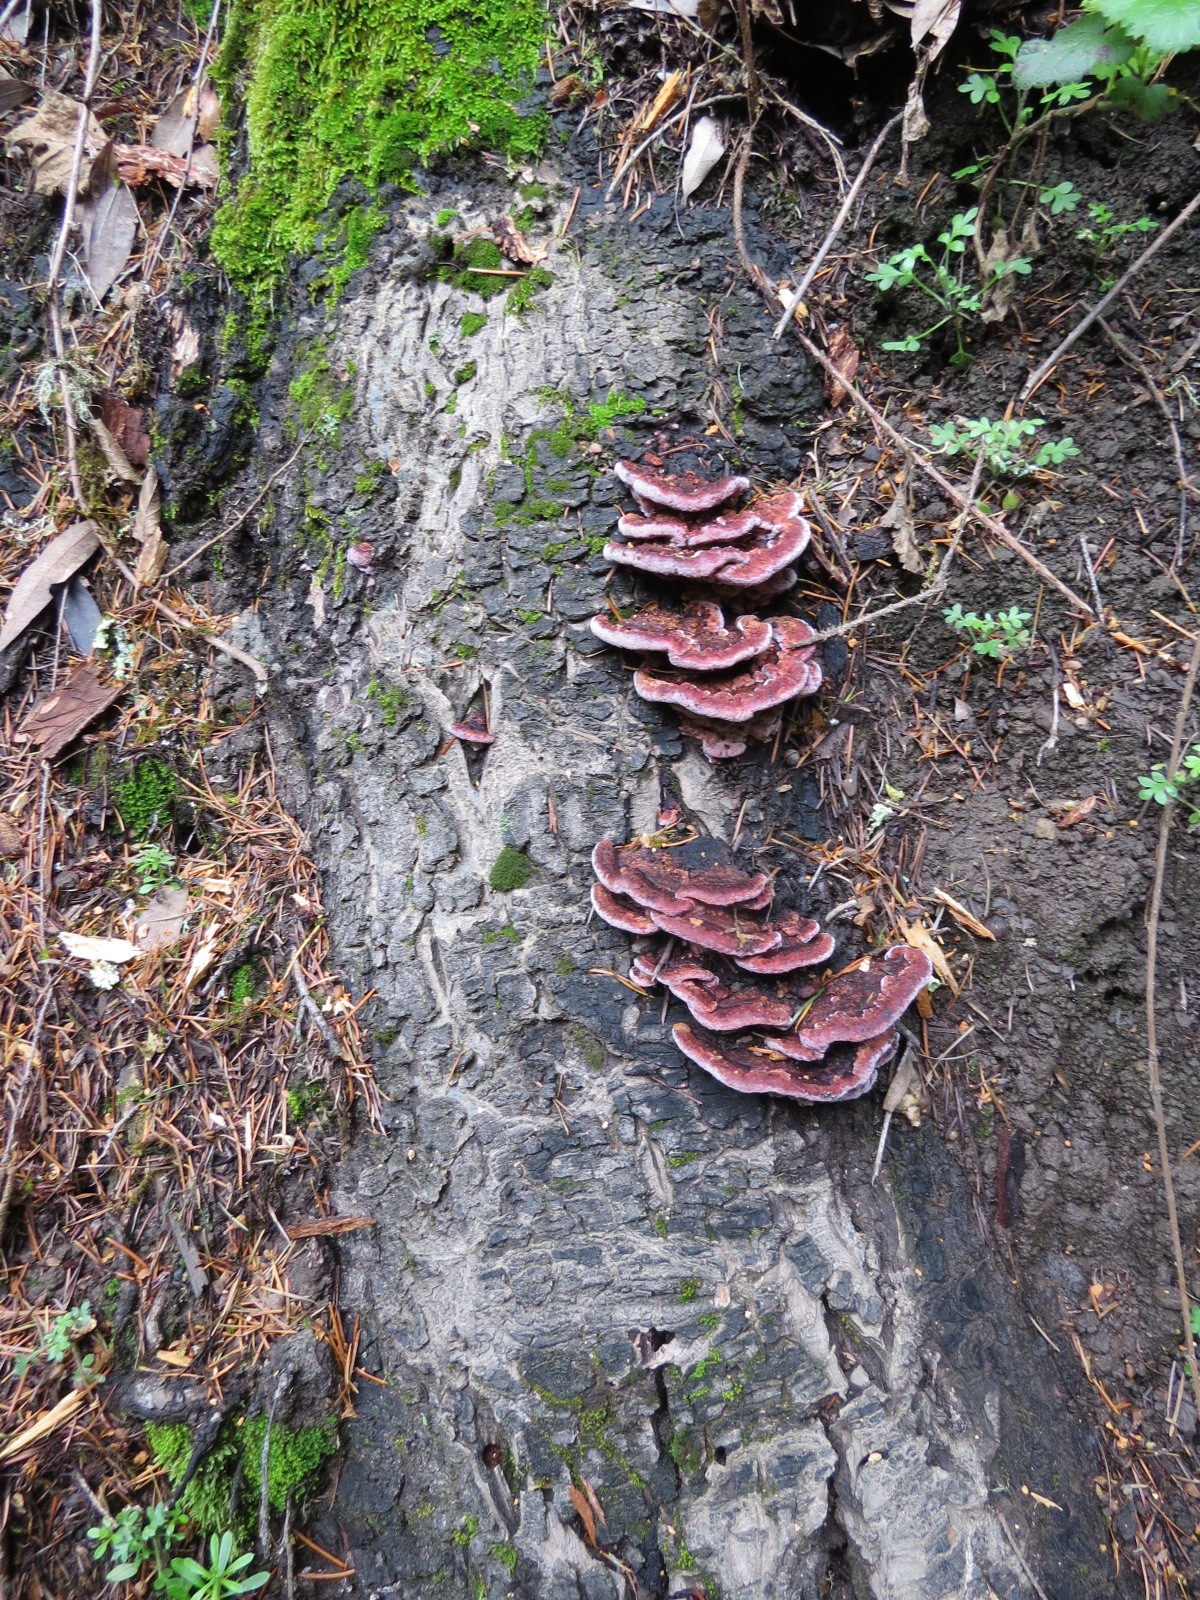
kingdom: Fungi
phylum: Basidiomycota
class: Agaricomycetes
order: Polyporales
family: Fomitopsidaceae
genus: Rhodofomes
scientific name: Rhodofomes cajanderi
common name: Rosy conk
